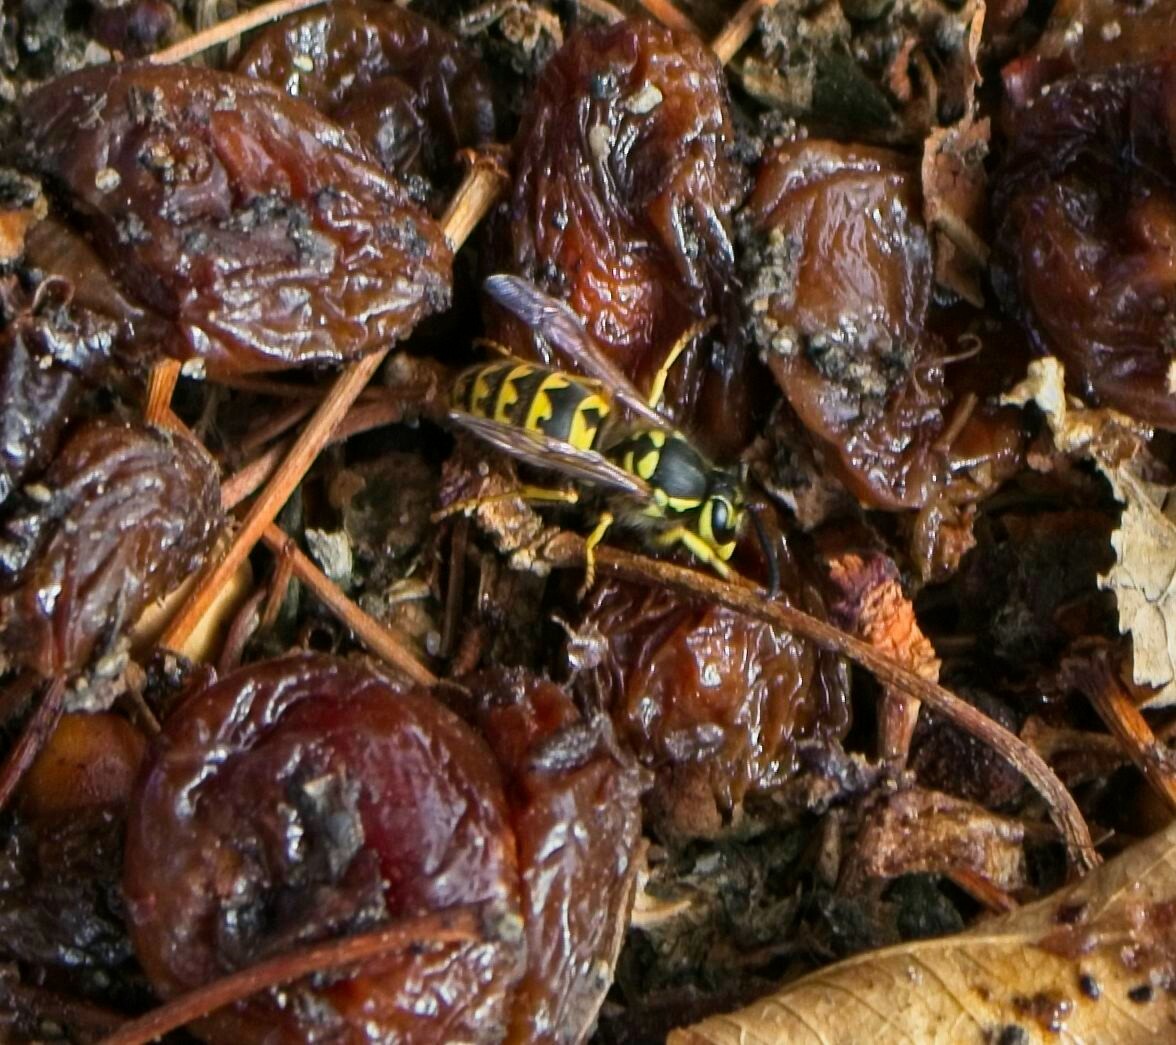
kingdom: Animalia
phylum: Arthropoda
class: Insecta
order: Hymenoptera
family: Vespidae
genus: Vespula
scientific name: Vespula pensylvanica
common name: Western yellowjacket
